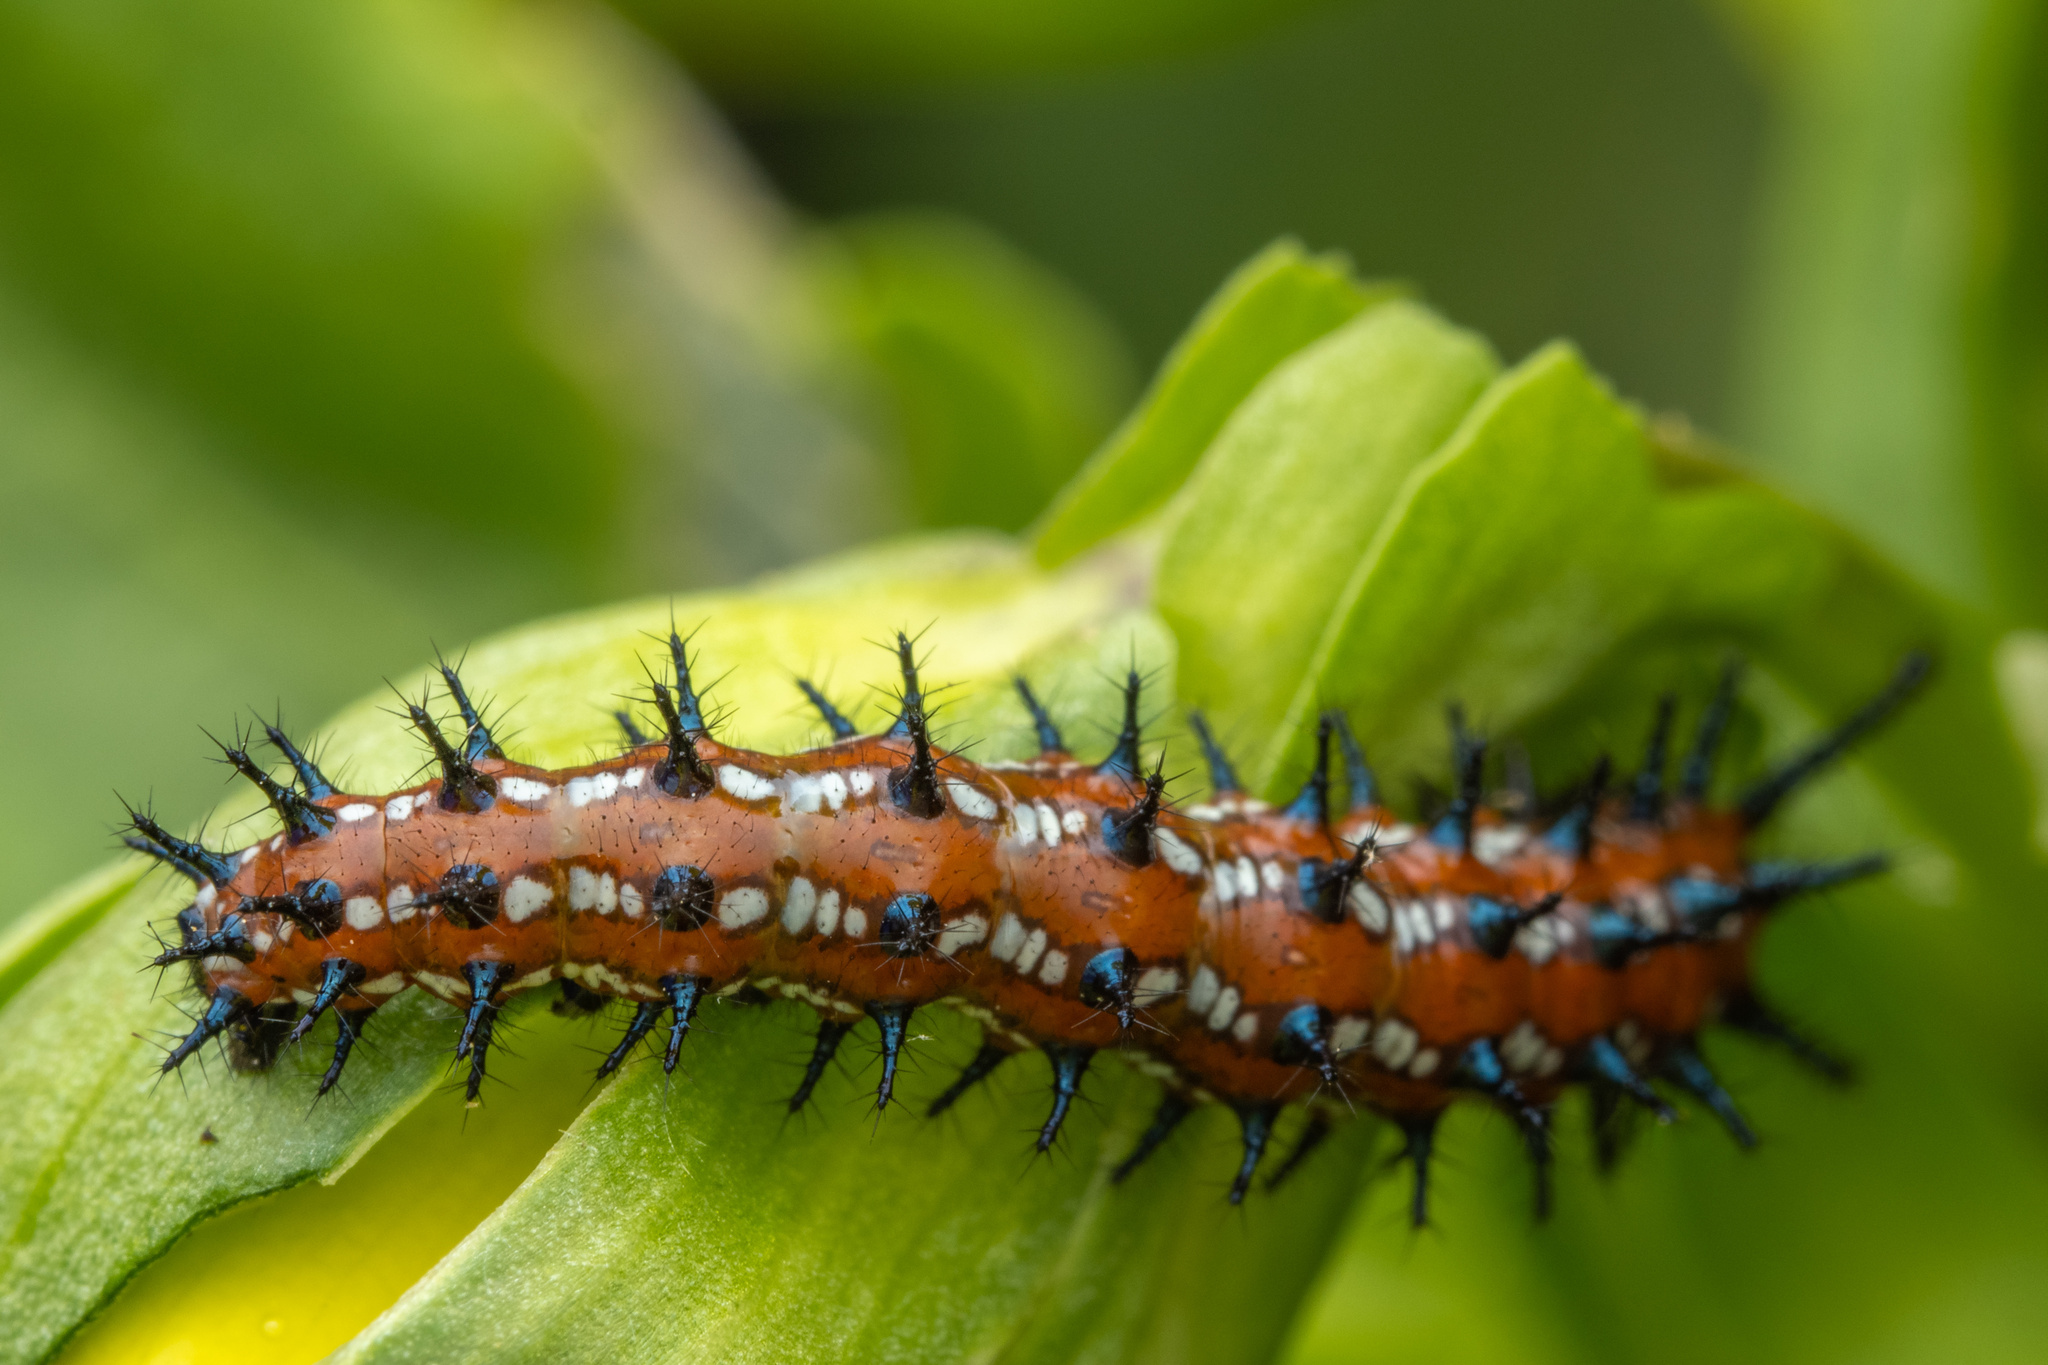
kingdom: Animalia
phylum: Arthropoda
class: Insecta
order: Lepidoptera
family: Nymphalidae
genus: Euptoieta
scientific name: Euptoieta claudia
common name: Variegated fritillary
